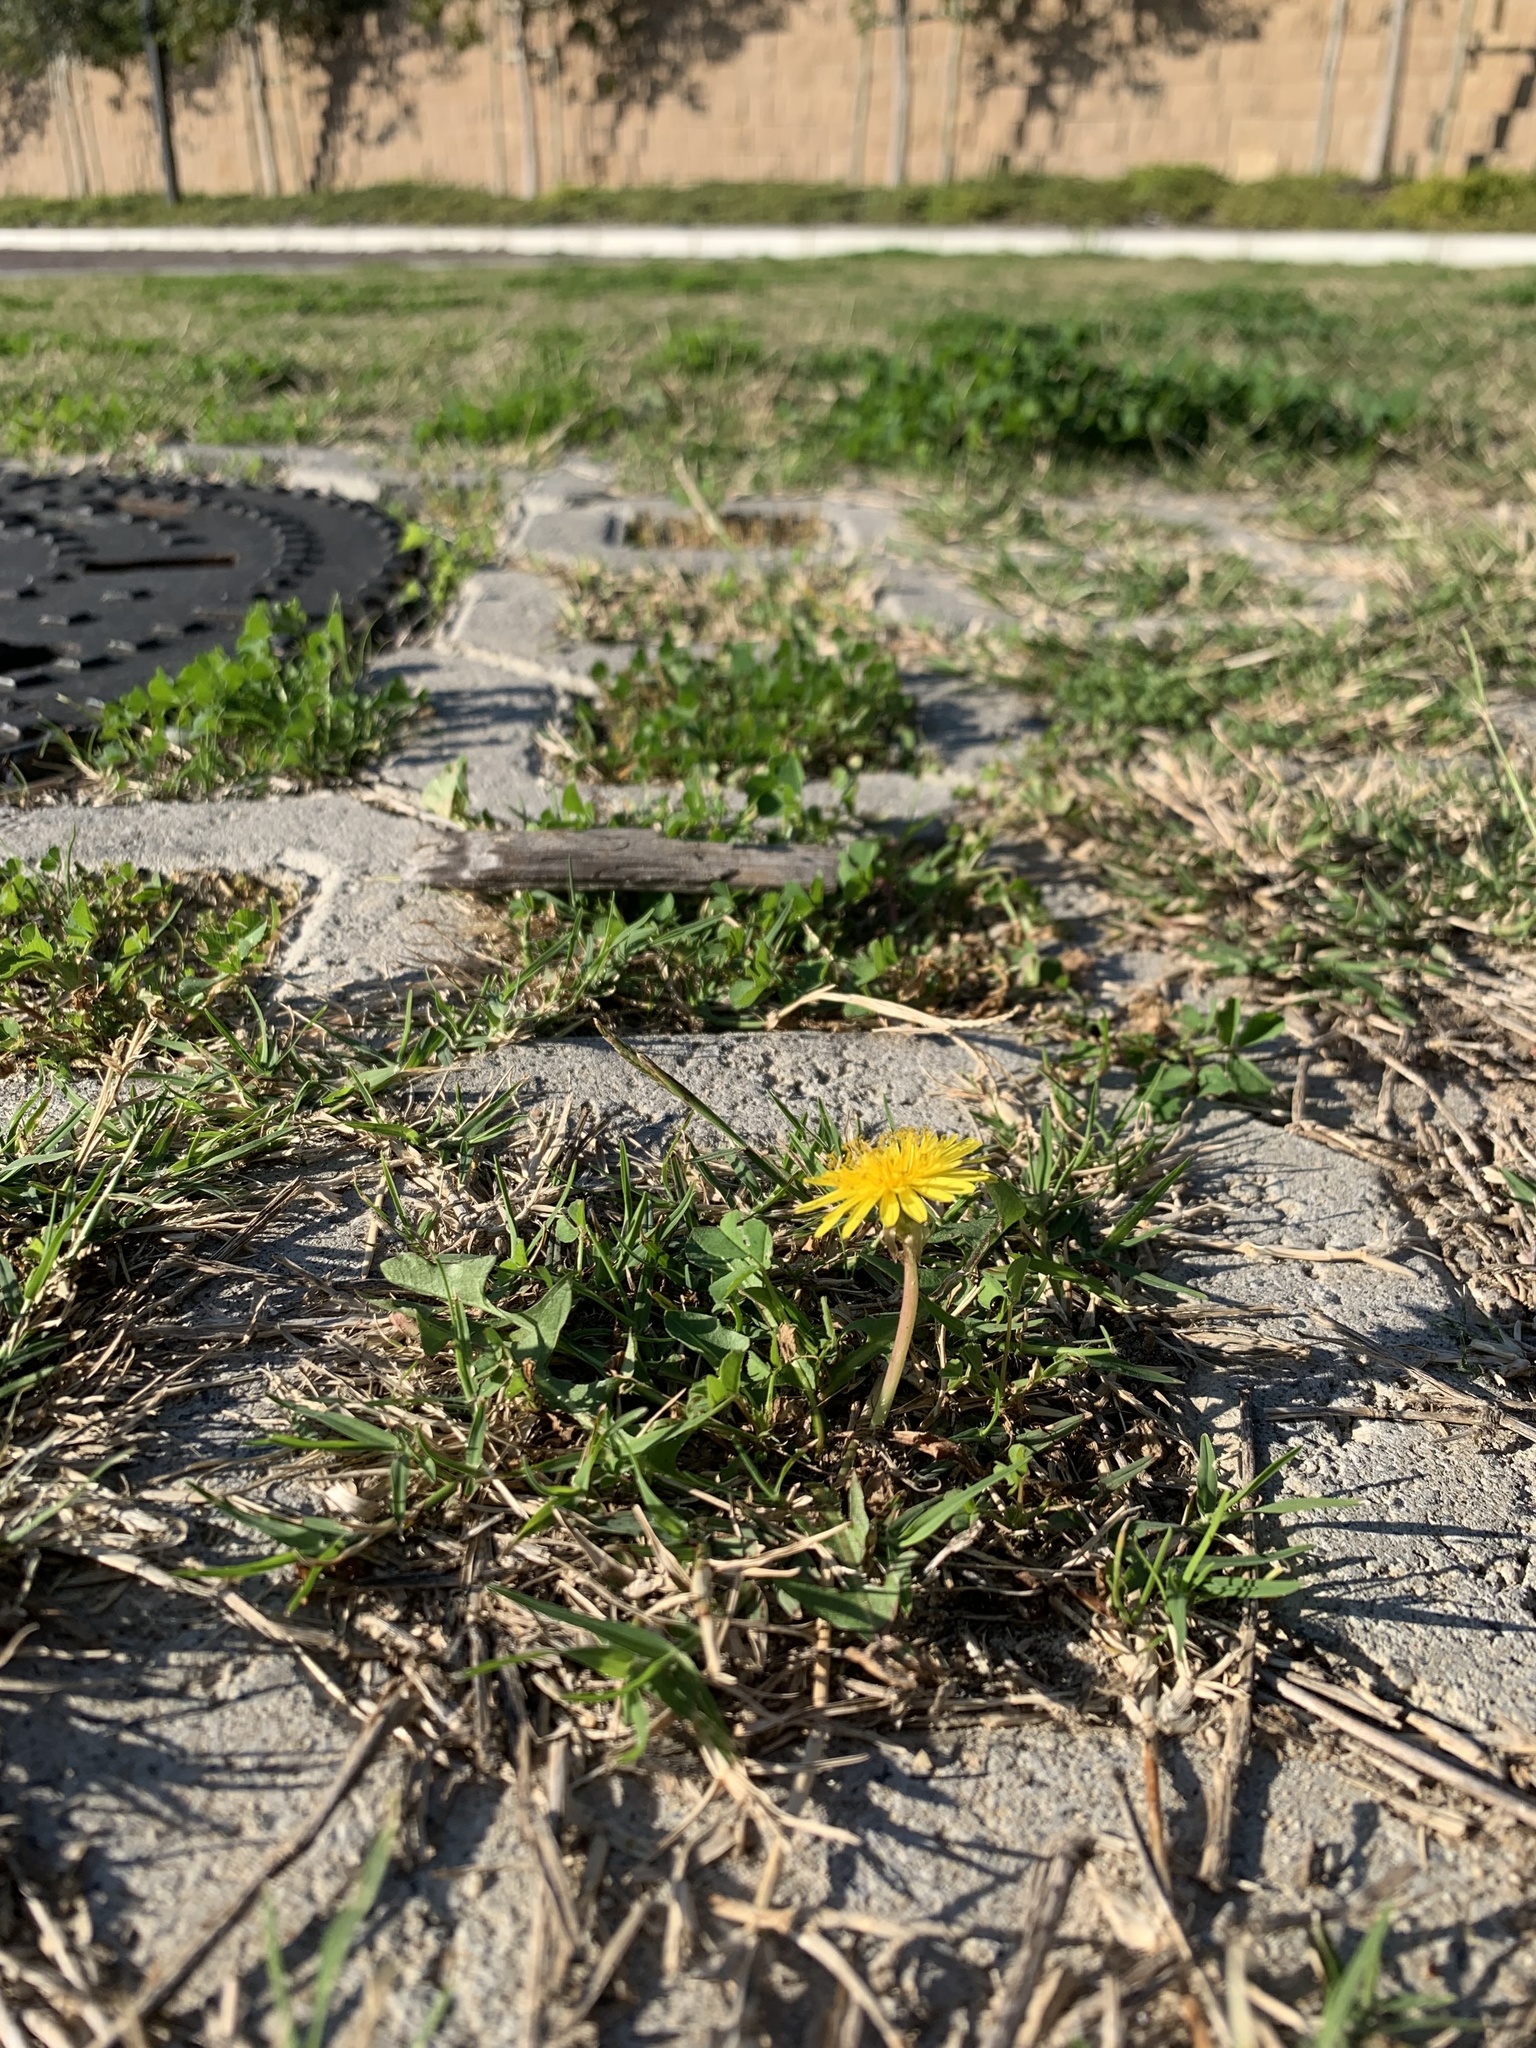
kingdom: Plantae
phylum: Tracheophyta
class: Magnoliopsida
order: Asterales
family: Asteraceae
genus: Taraxacum
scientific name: Taraxacum officinale
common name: Common dandelion
